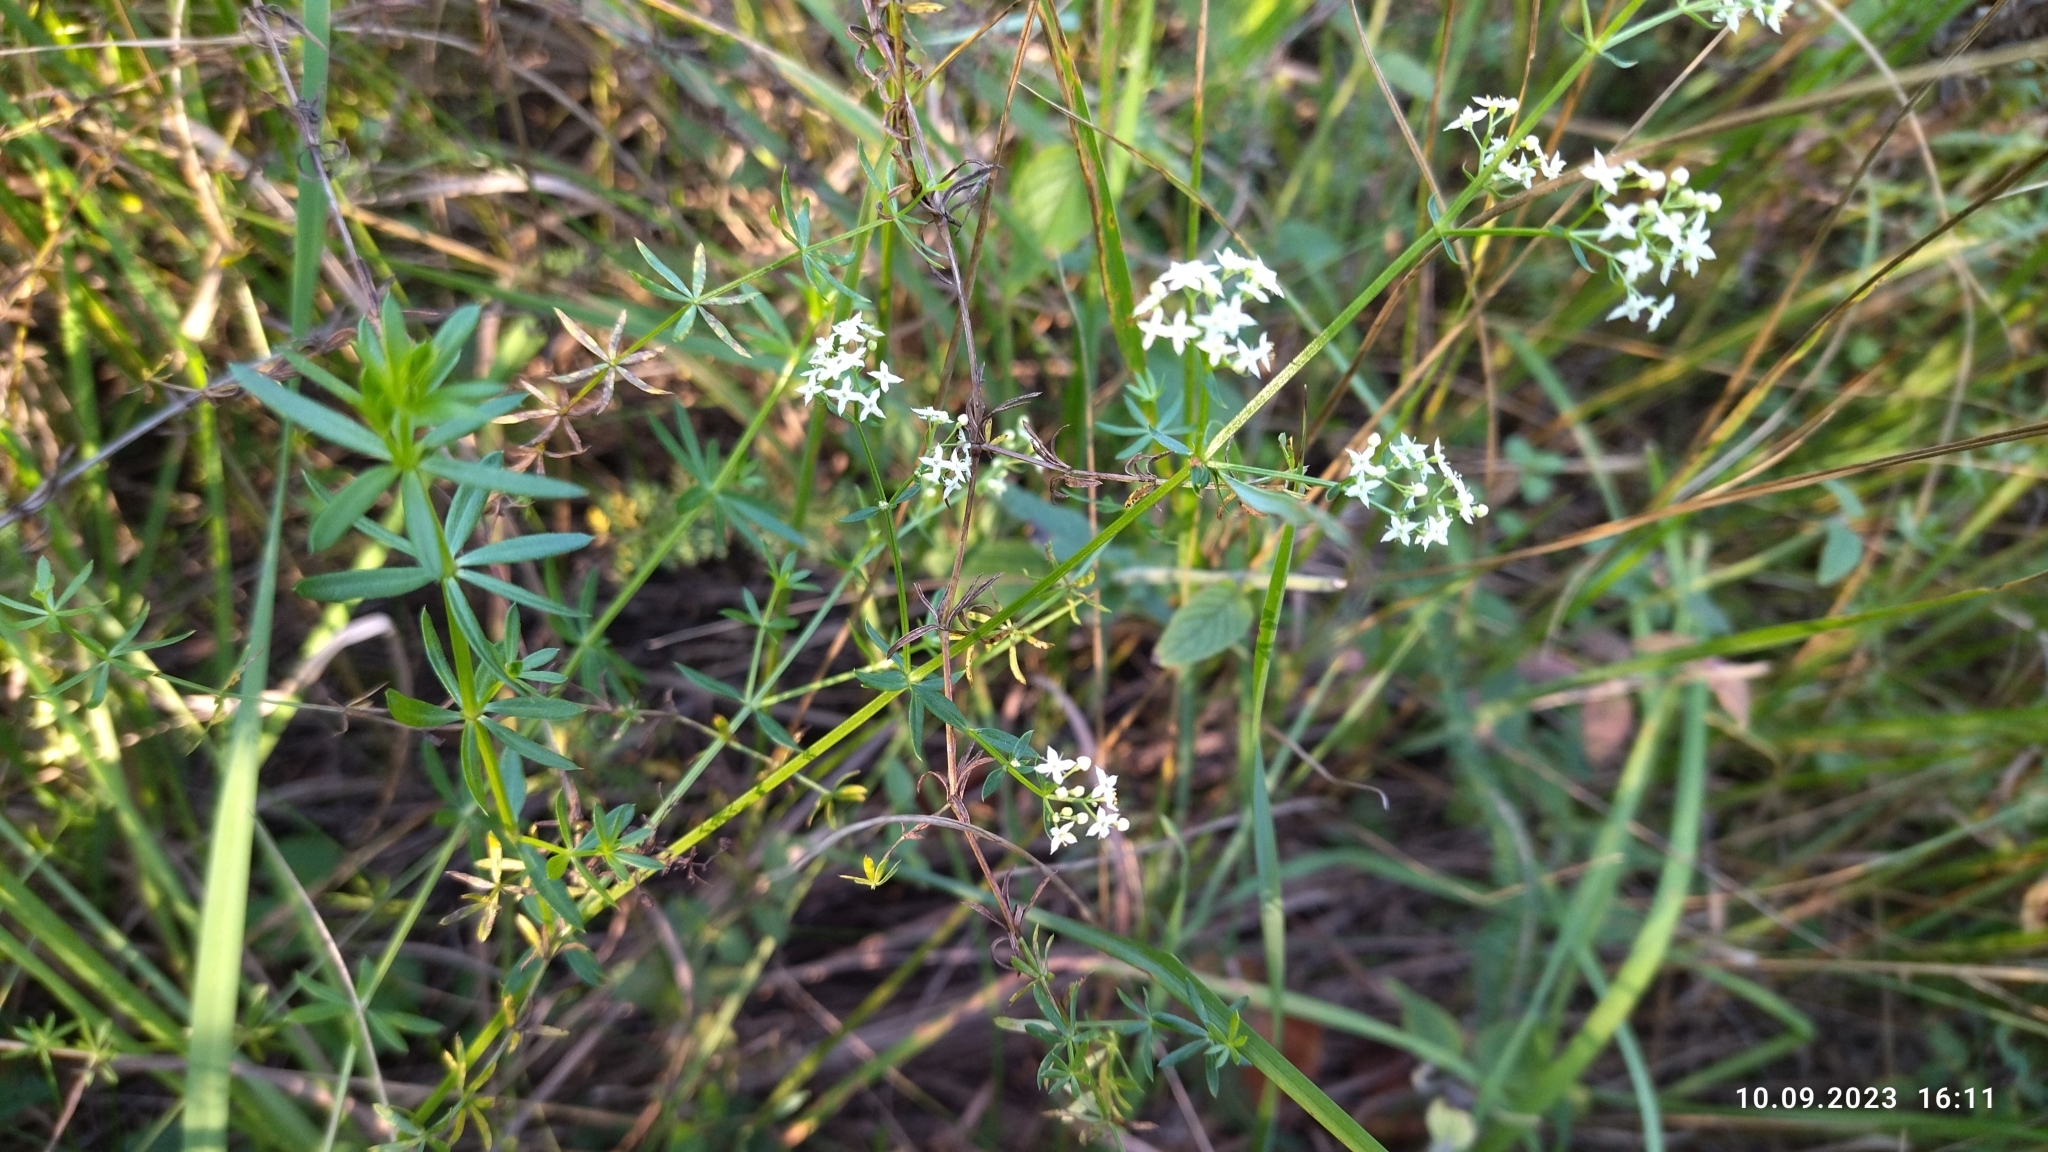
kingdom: Plantae
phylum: Tracheophyta
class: Magnoliopsida
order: Gentianales
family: Rubiaceae
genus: Galium
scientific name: Galium mollugo
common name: Hedge bedstraw
